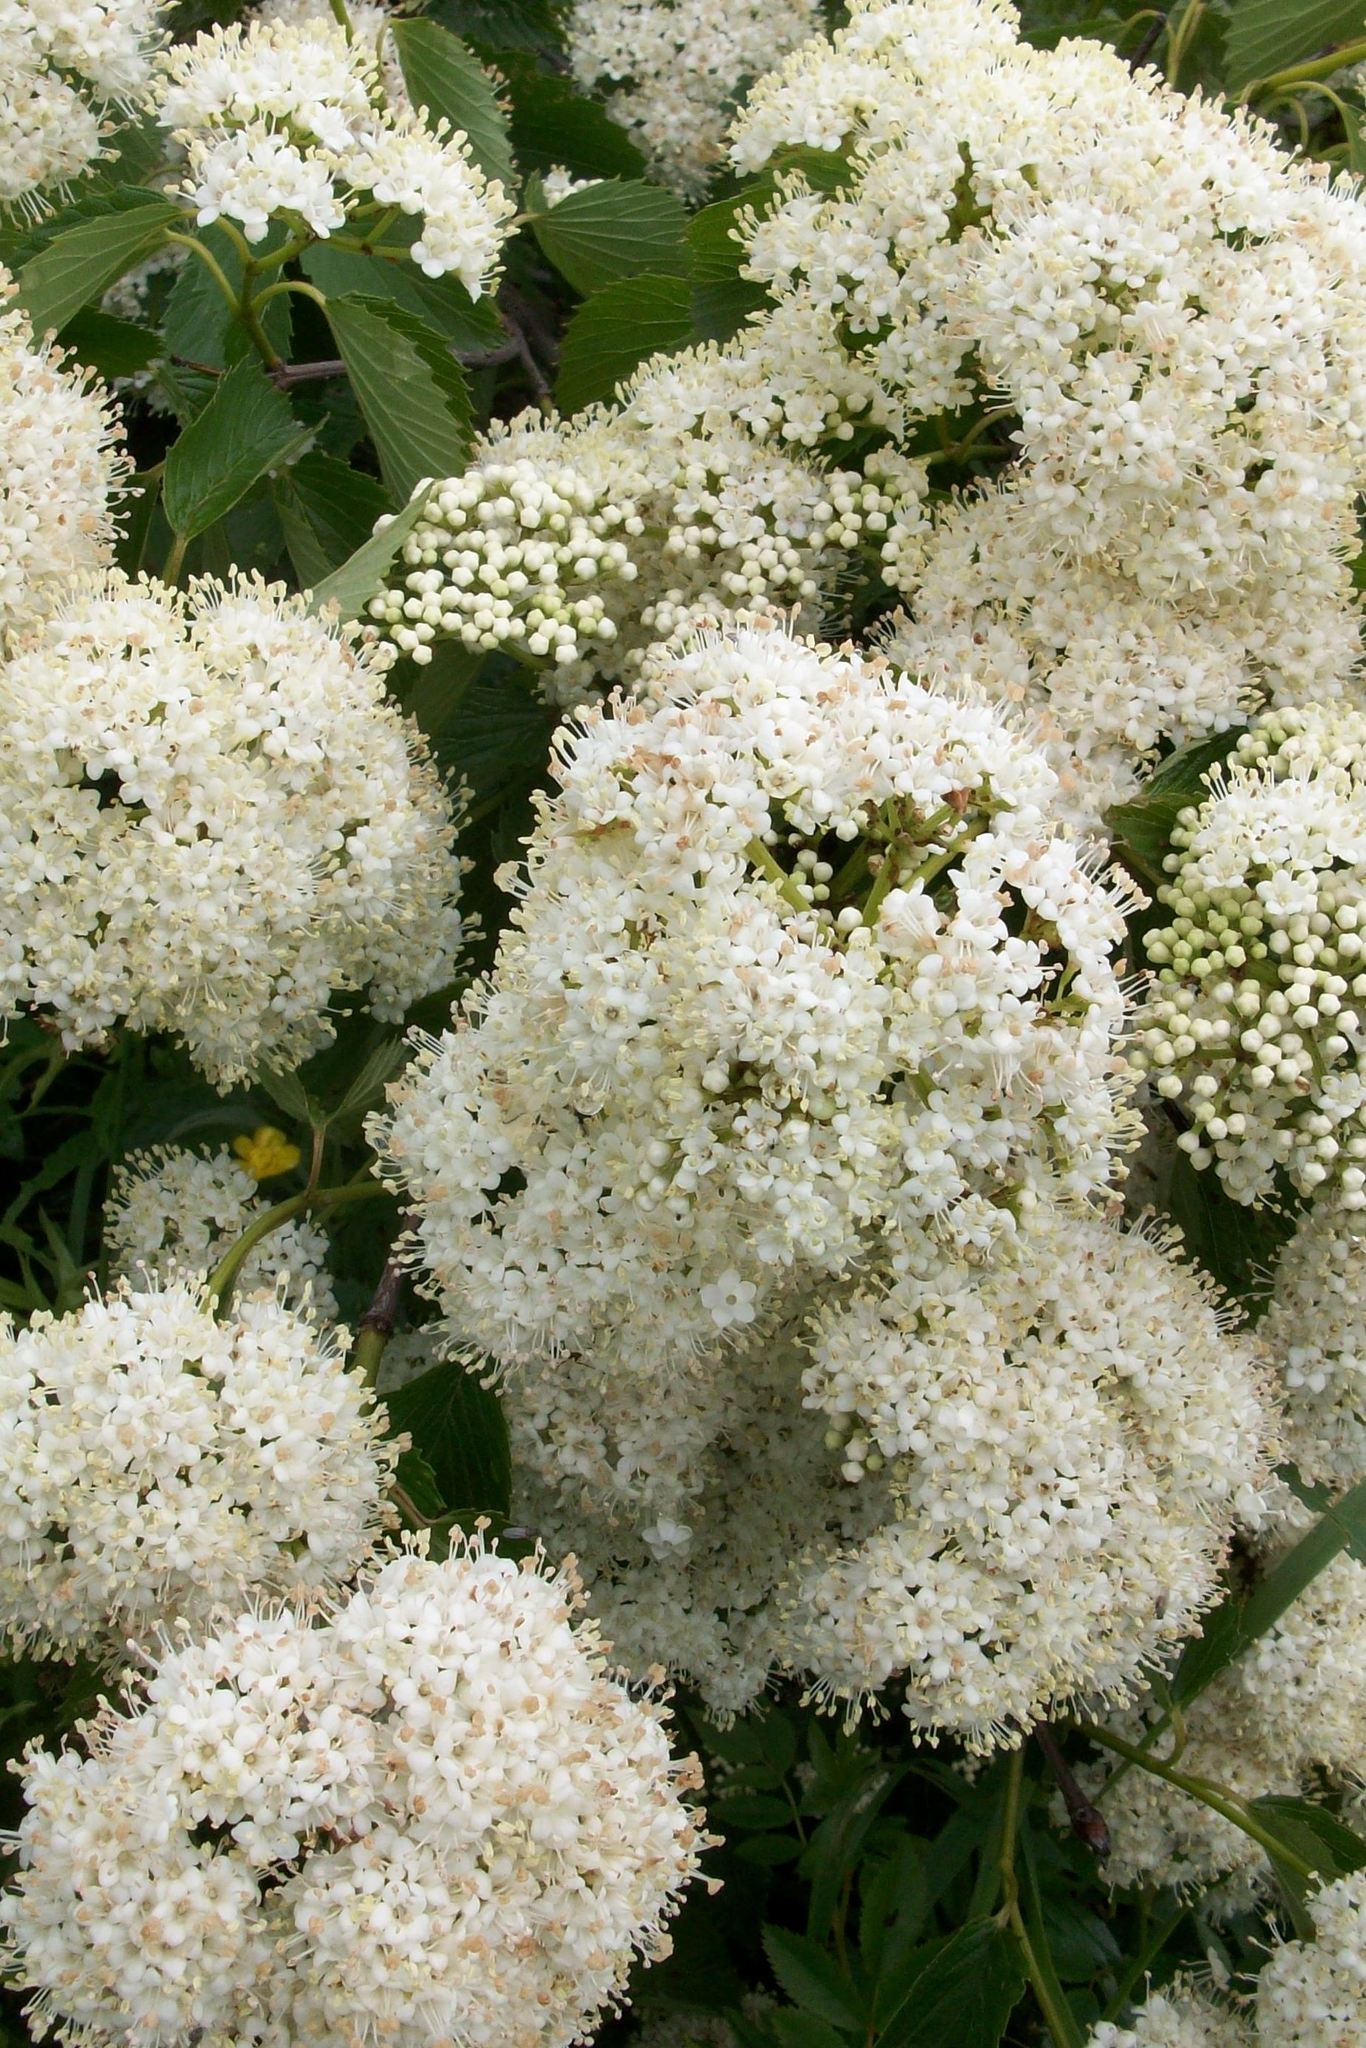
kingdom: Plantae
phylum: Tracheophyta
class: Magnoliopsida
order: Dipsacales
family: Viburnaceae
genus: Viburnum
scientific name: Viburnum dentatum
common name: Arrow-wood
